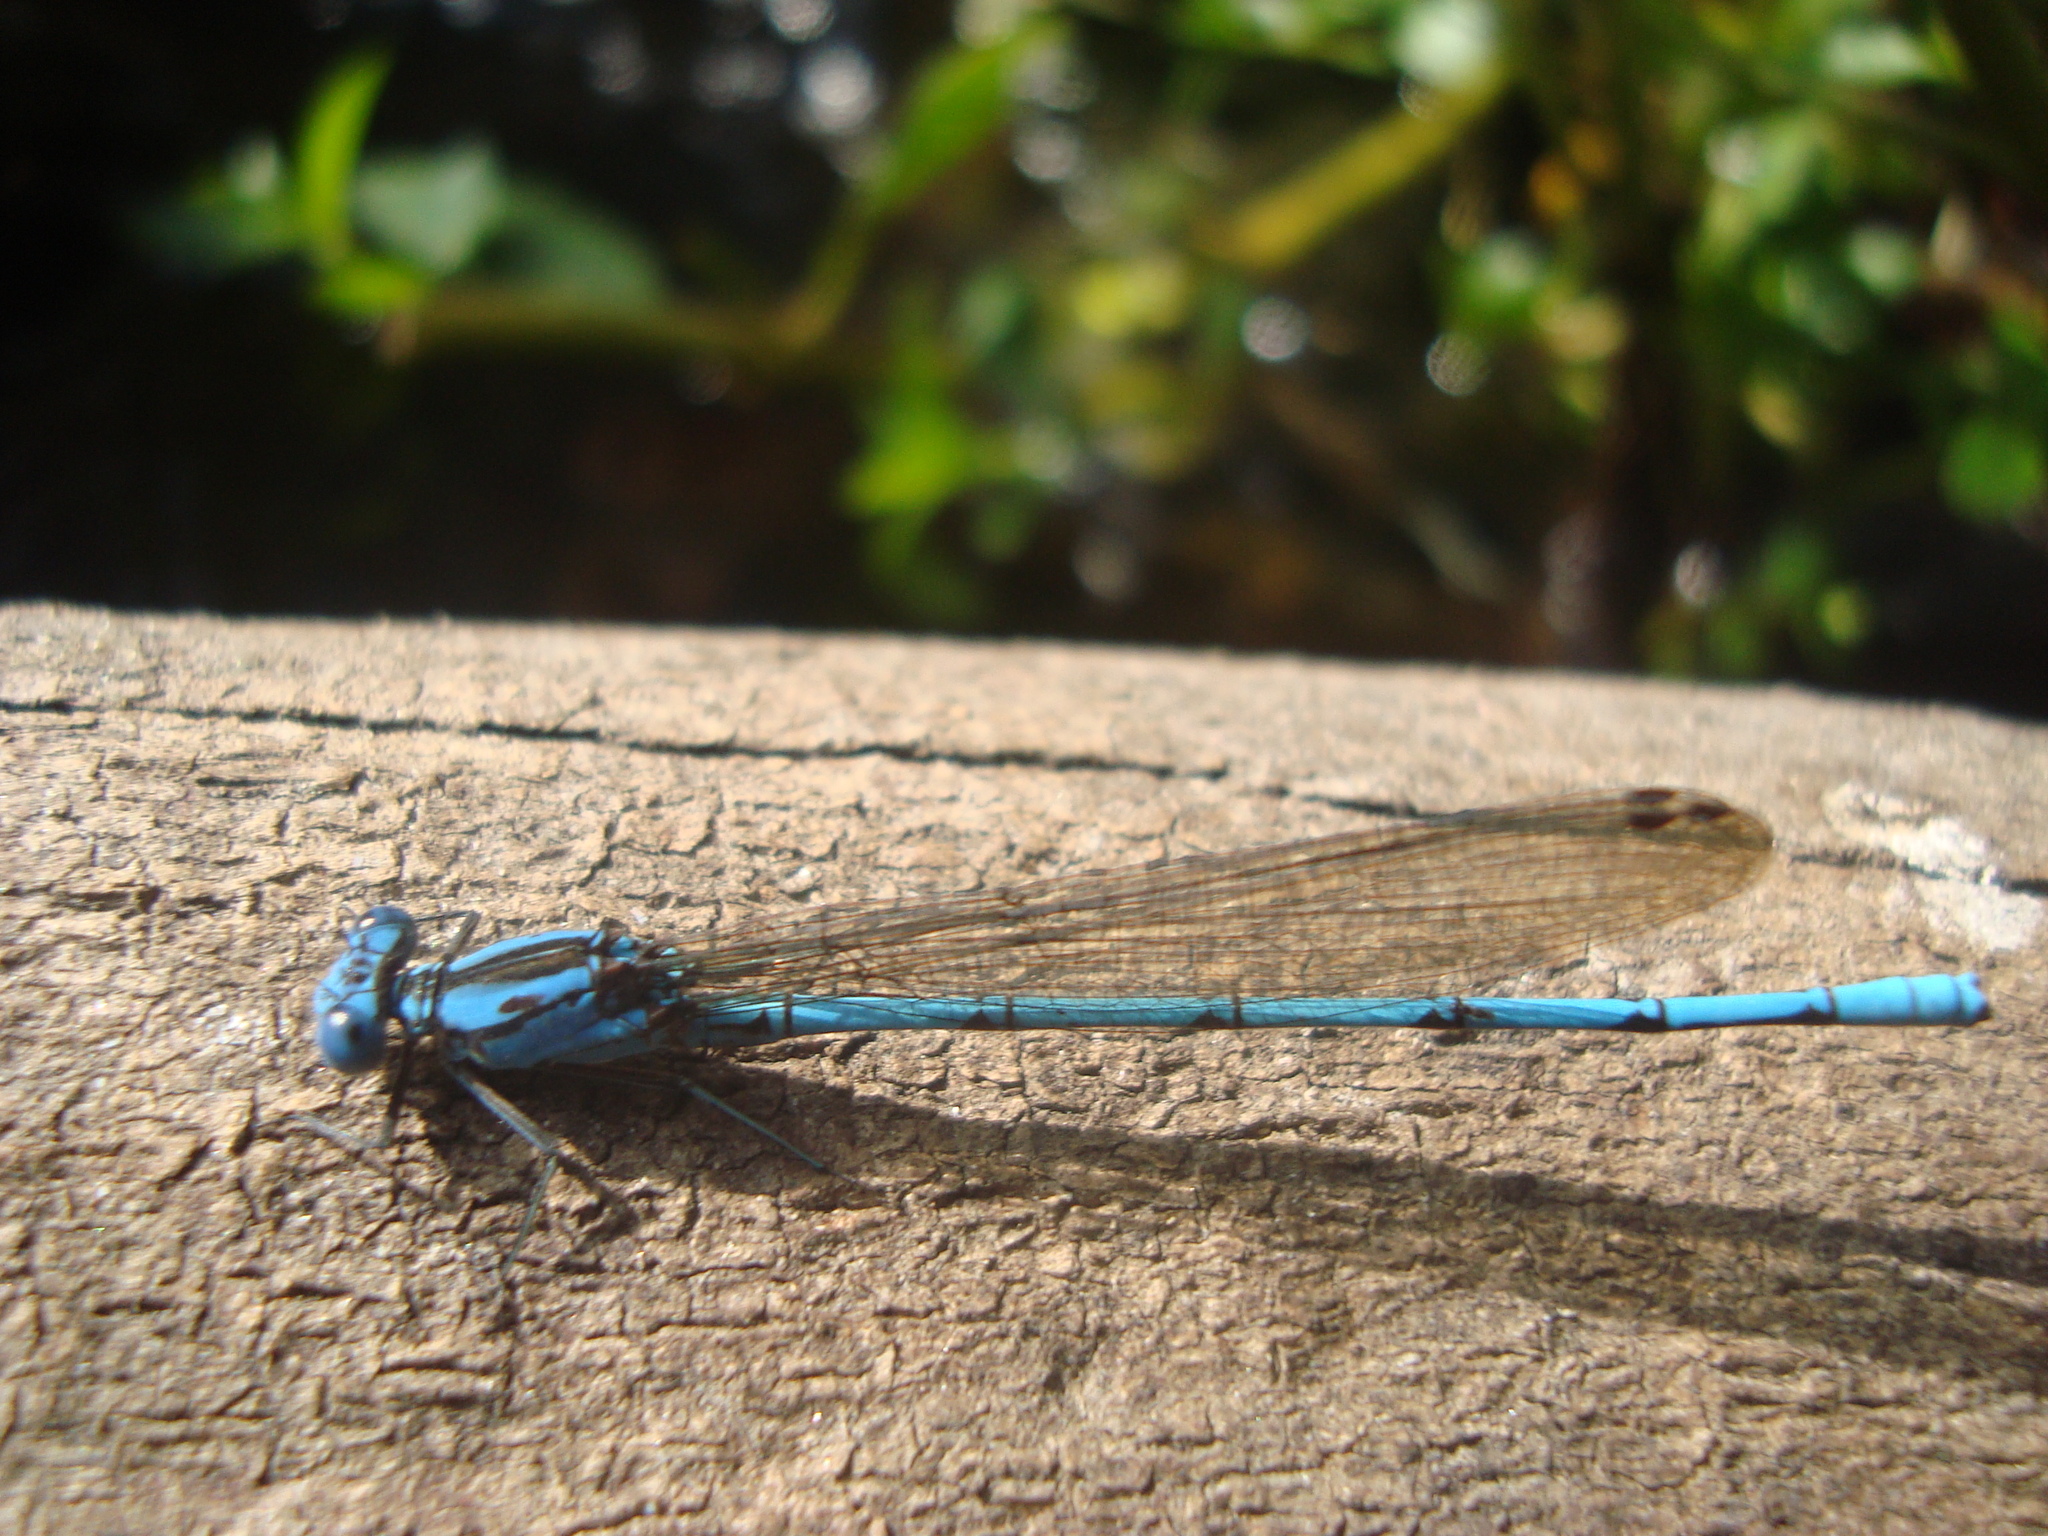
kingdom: Animalia
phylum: Arthropoda
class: Insecta
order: Odonata
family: Coenagrionidae
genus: Argia
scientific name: Argia anceps
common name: Cerulean dancer
